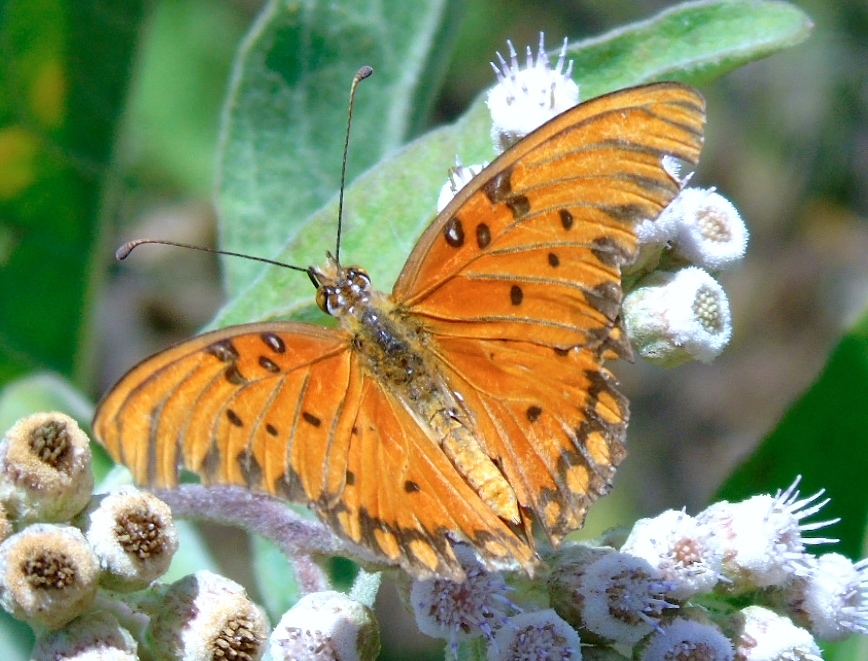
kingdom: Animalia
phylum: Arthropoda
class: Insecta
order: Lepidoptera
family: Nymphalidae
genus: Dione
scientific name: Dione vanillae
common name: Gulf fritillary
